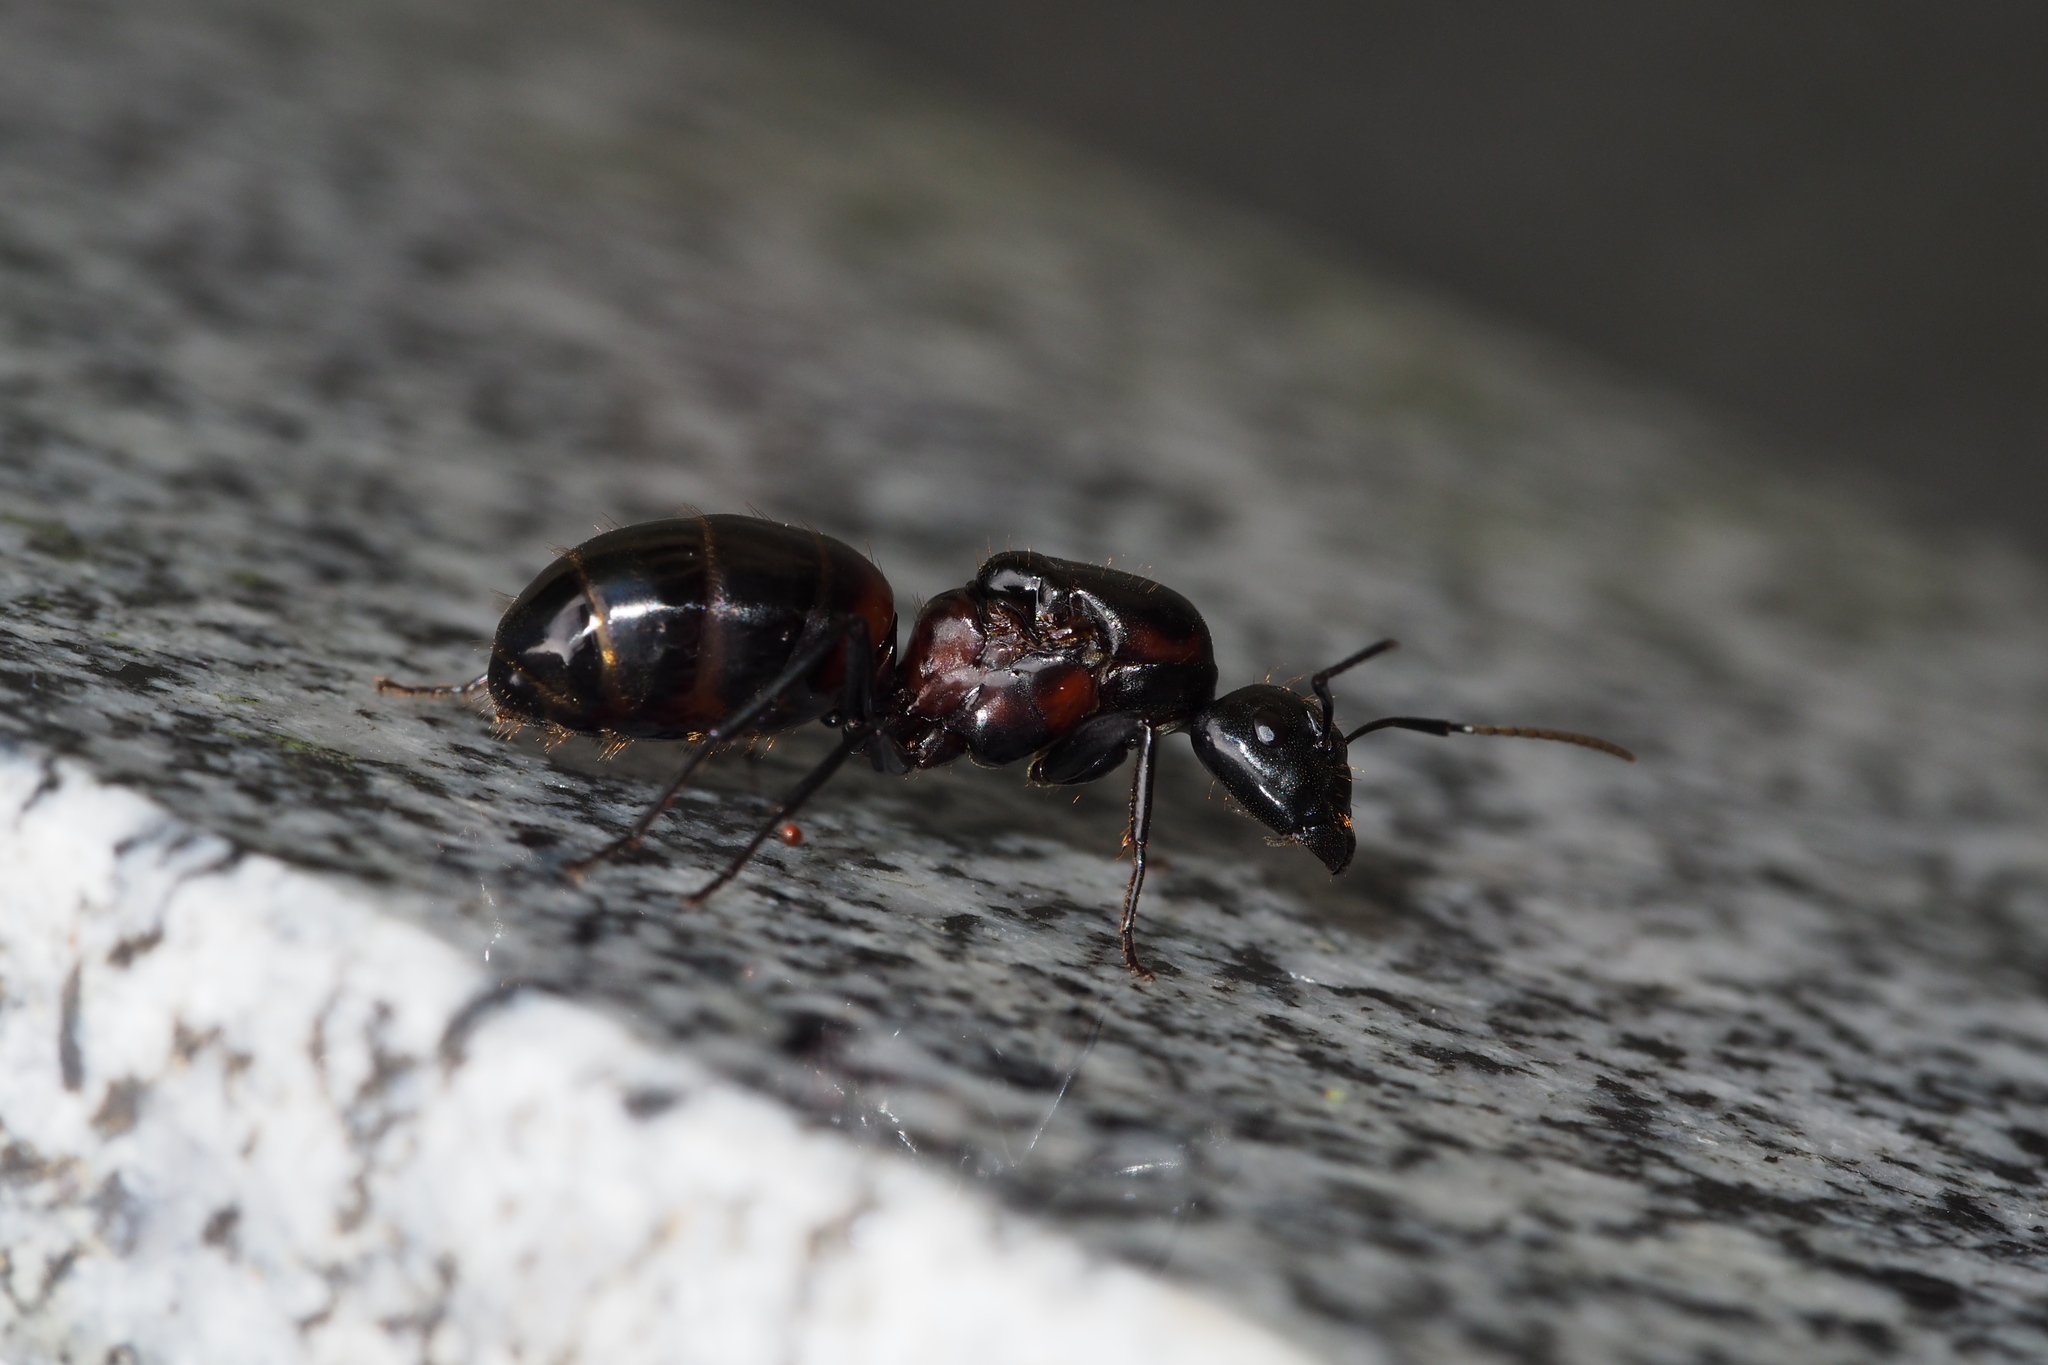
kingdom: Animalia
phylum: Arthropoda
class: Insecta
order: Hymenoptera
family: Formicidae
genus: Camponotus
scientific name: Camponotus obscuripes
